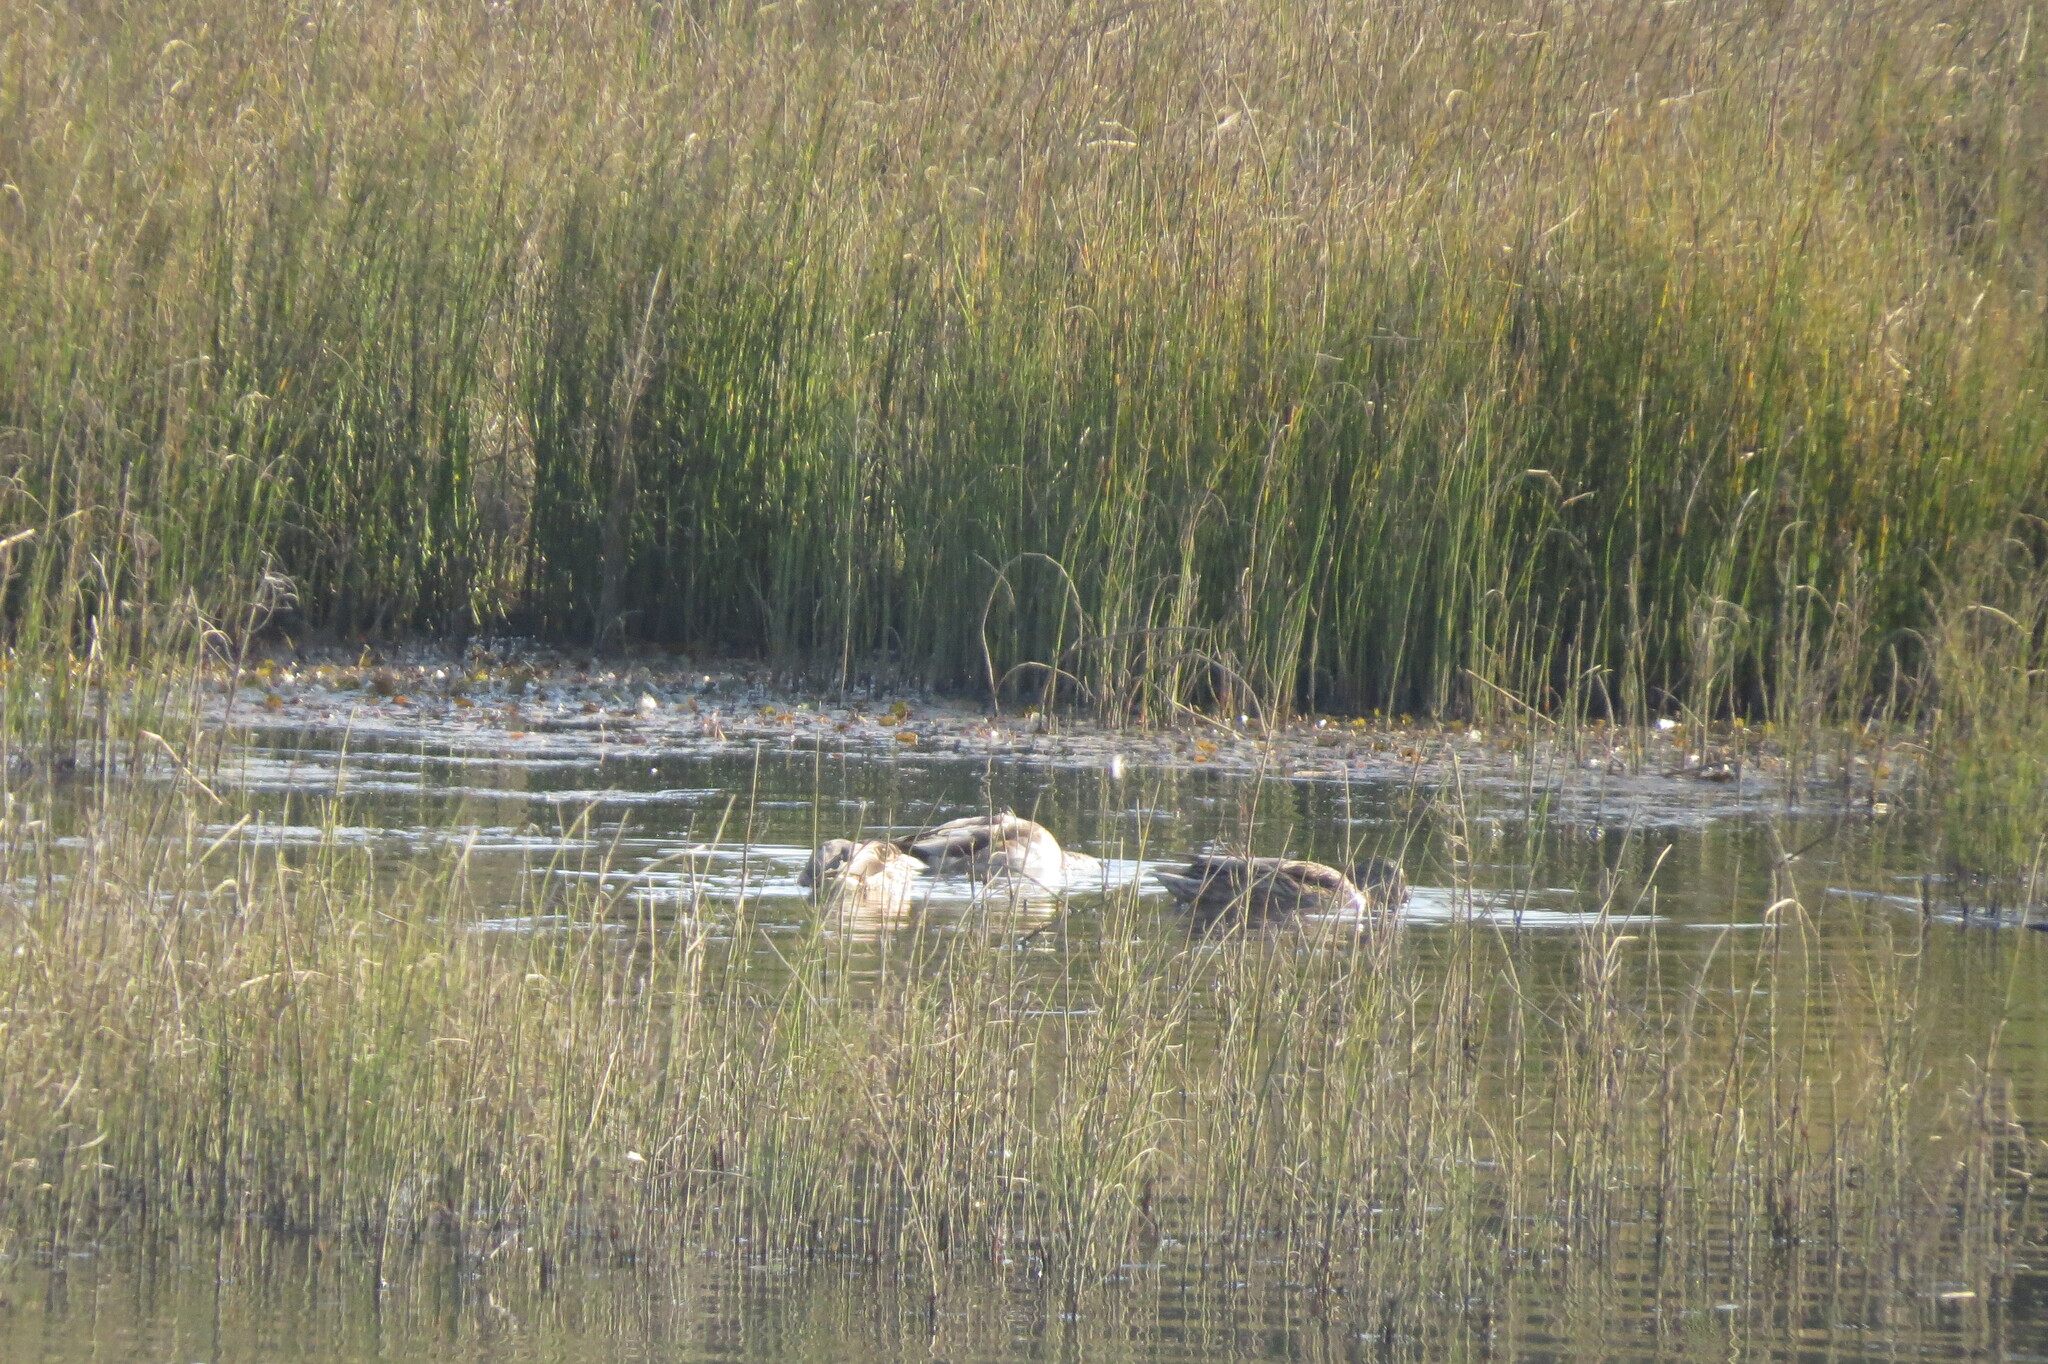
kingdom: Animalia
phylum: Chordata
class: Aves
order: Anseriformes
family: Anatidae
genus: Anas
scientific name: Anas platyrhynchos
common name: Mallard
